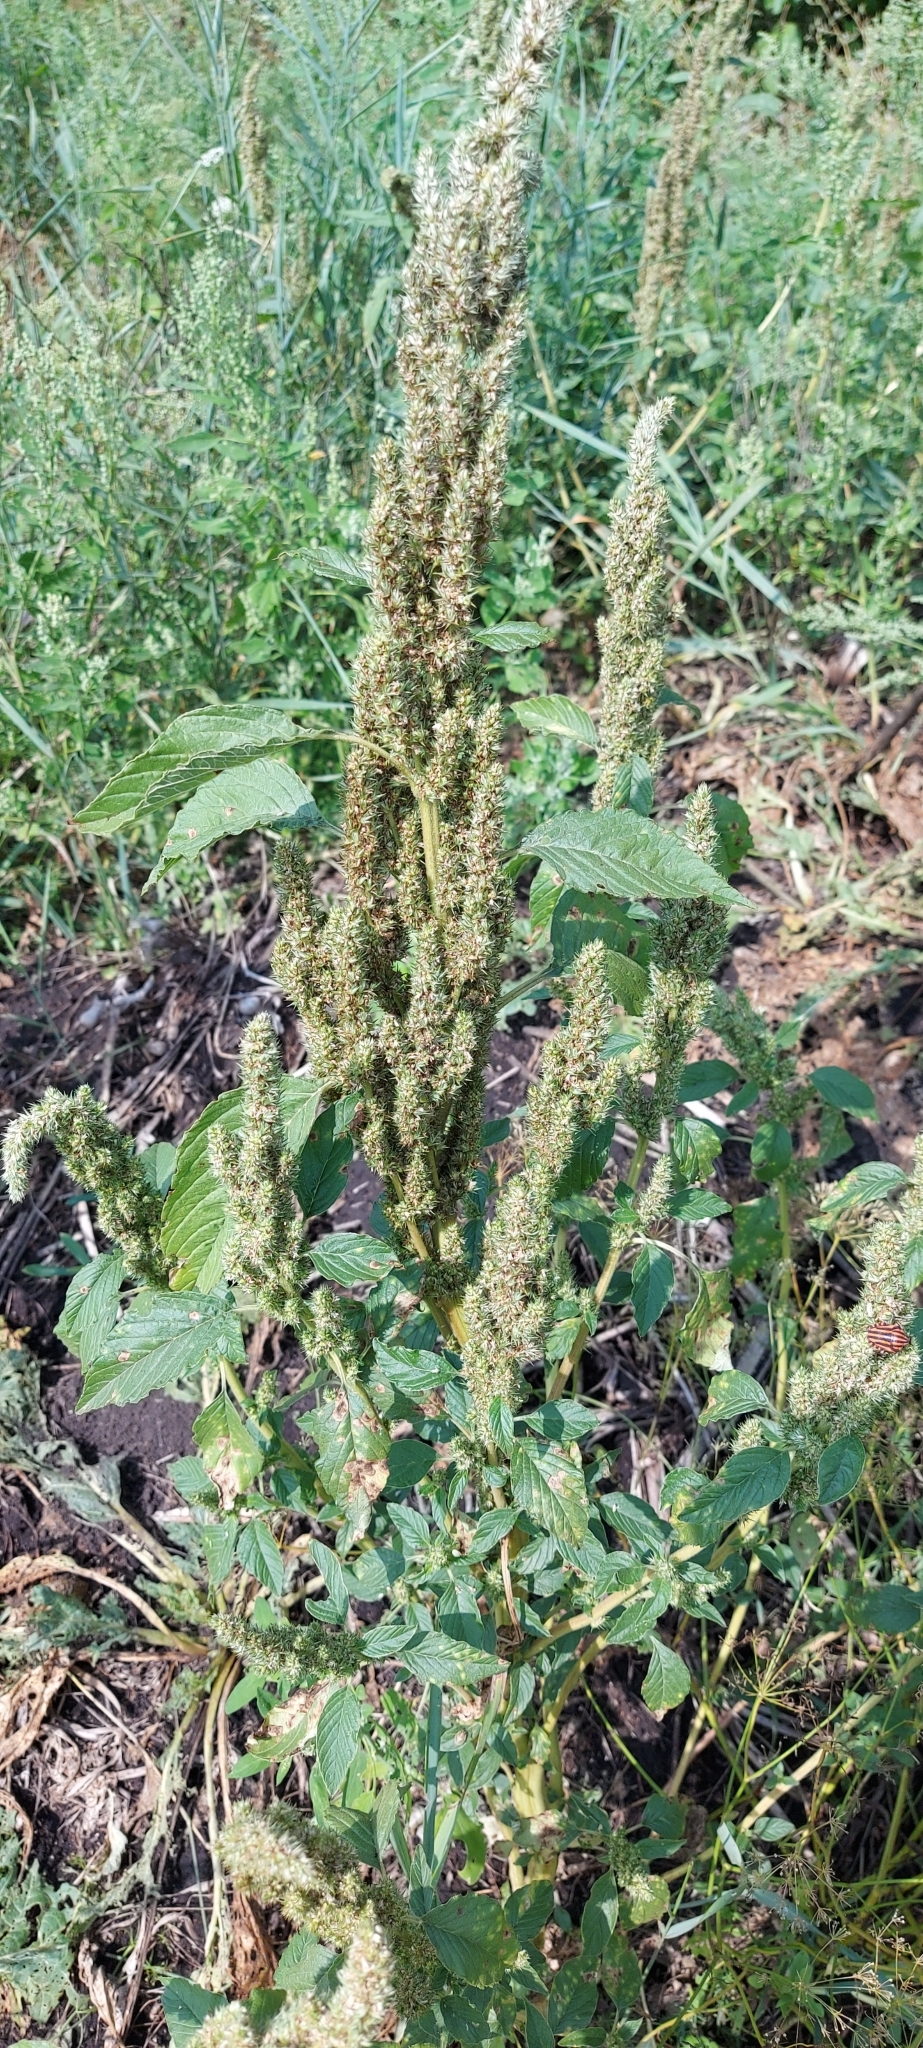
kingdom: Plantae
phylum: Tracheophyta
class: Magnoliopsida
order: Caryophyllales
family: Amaranthaceae
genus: Amaranthus
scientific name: Amaranthus retroflexus
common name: Redroot amaranth
